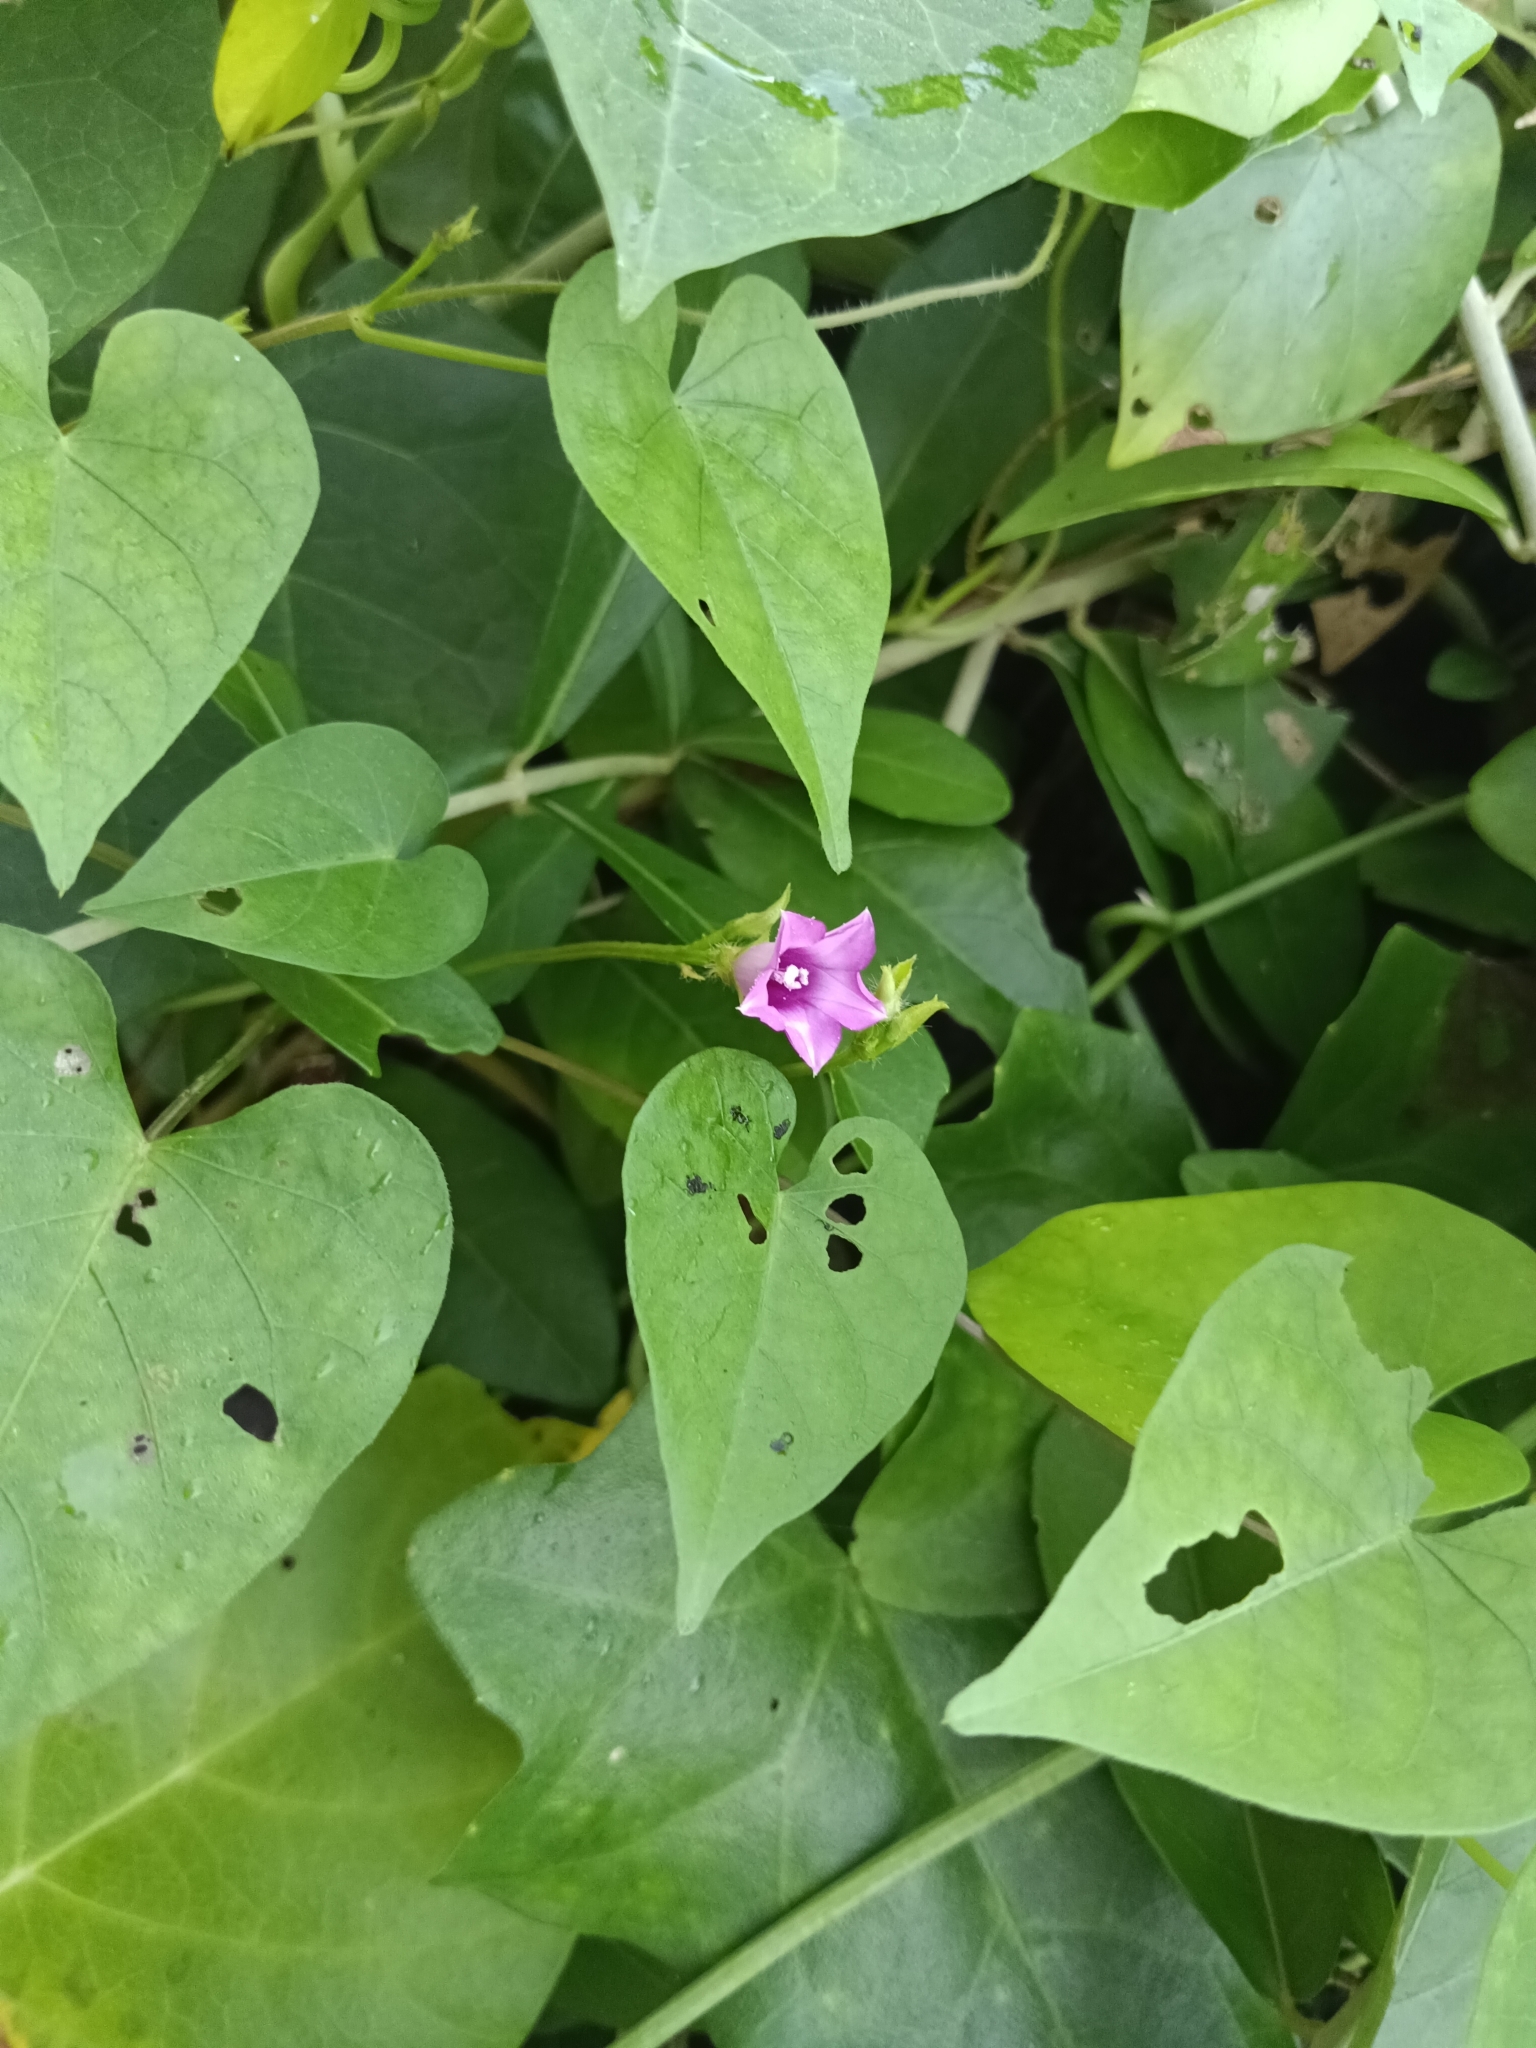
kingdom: Plantae
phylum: Tracheophyta
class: Magnoliopsida
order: Solanales
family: Convolvulaceae
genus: Ipomoea
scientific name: Ipomoea triloba
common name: Little-bell
